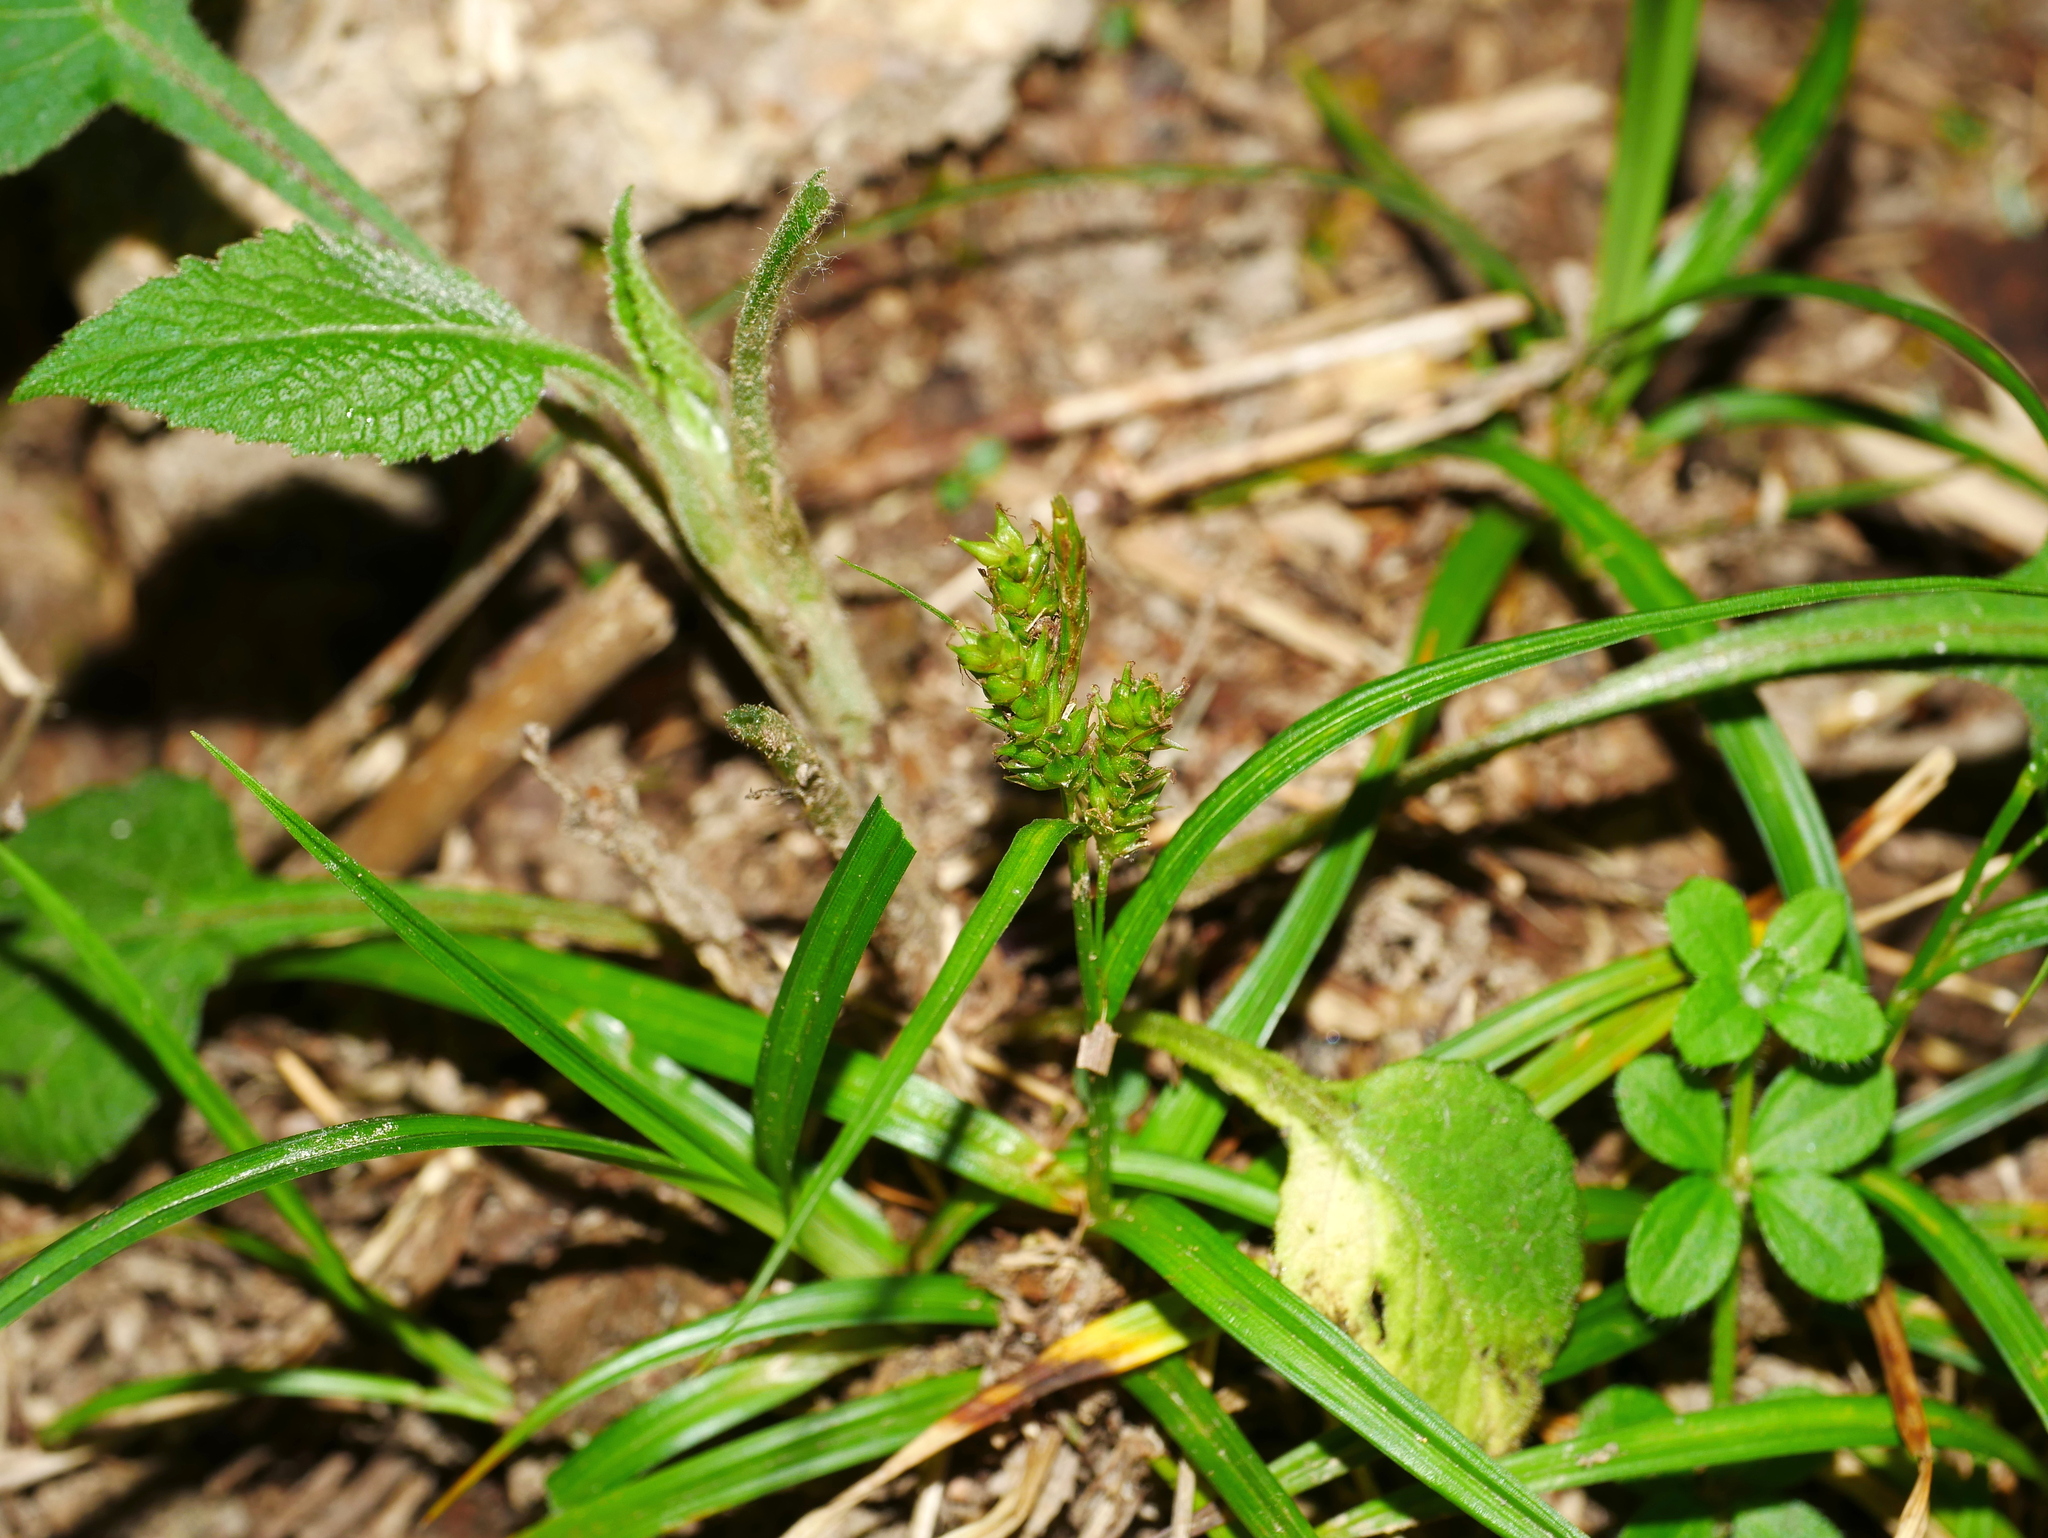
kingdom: Plantae
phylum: Tracheophyta
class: Liliopsida
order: Poales
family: Cyperaceae
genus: Carex
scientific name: Carex liui
